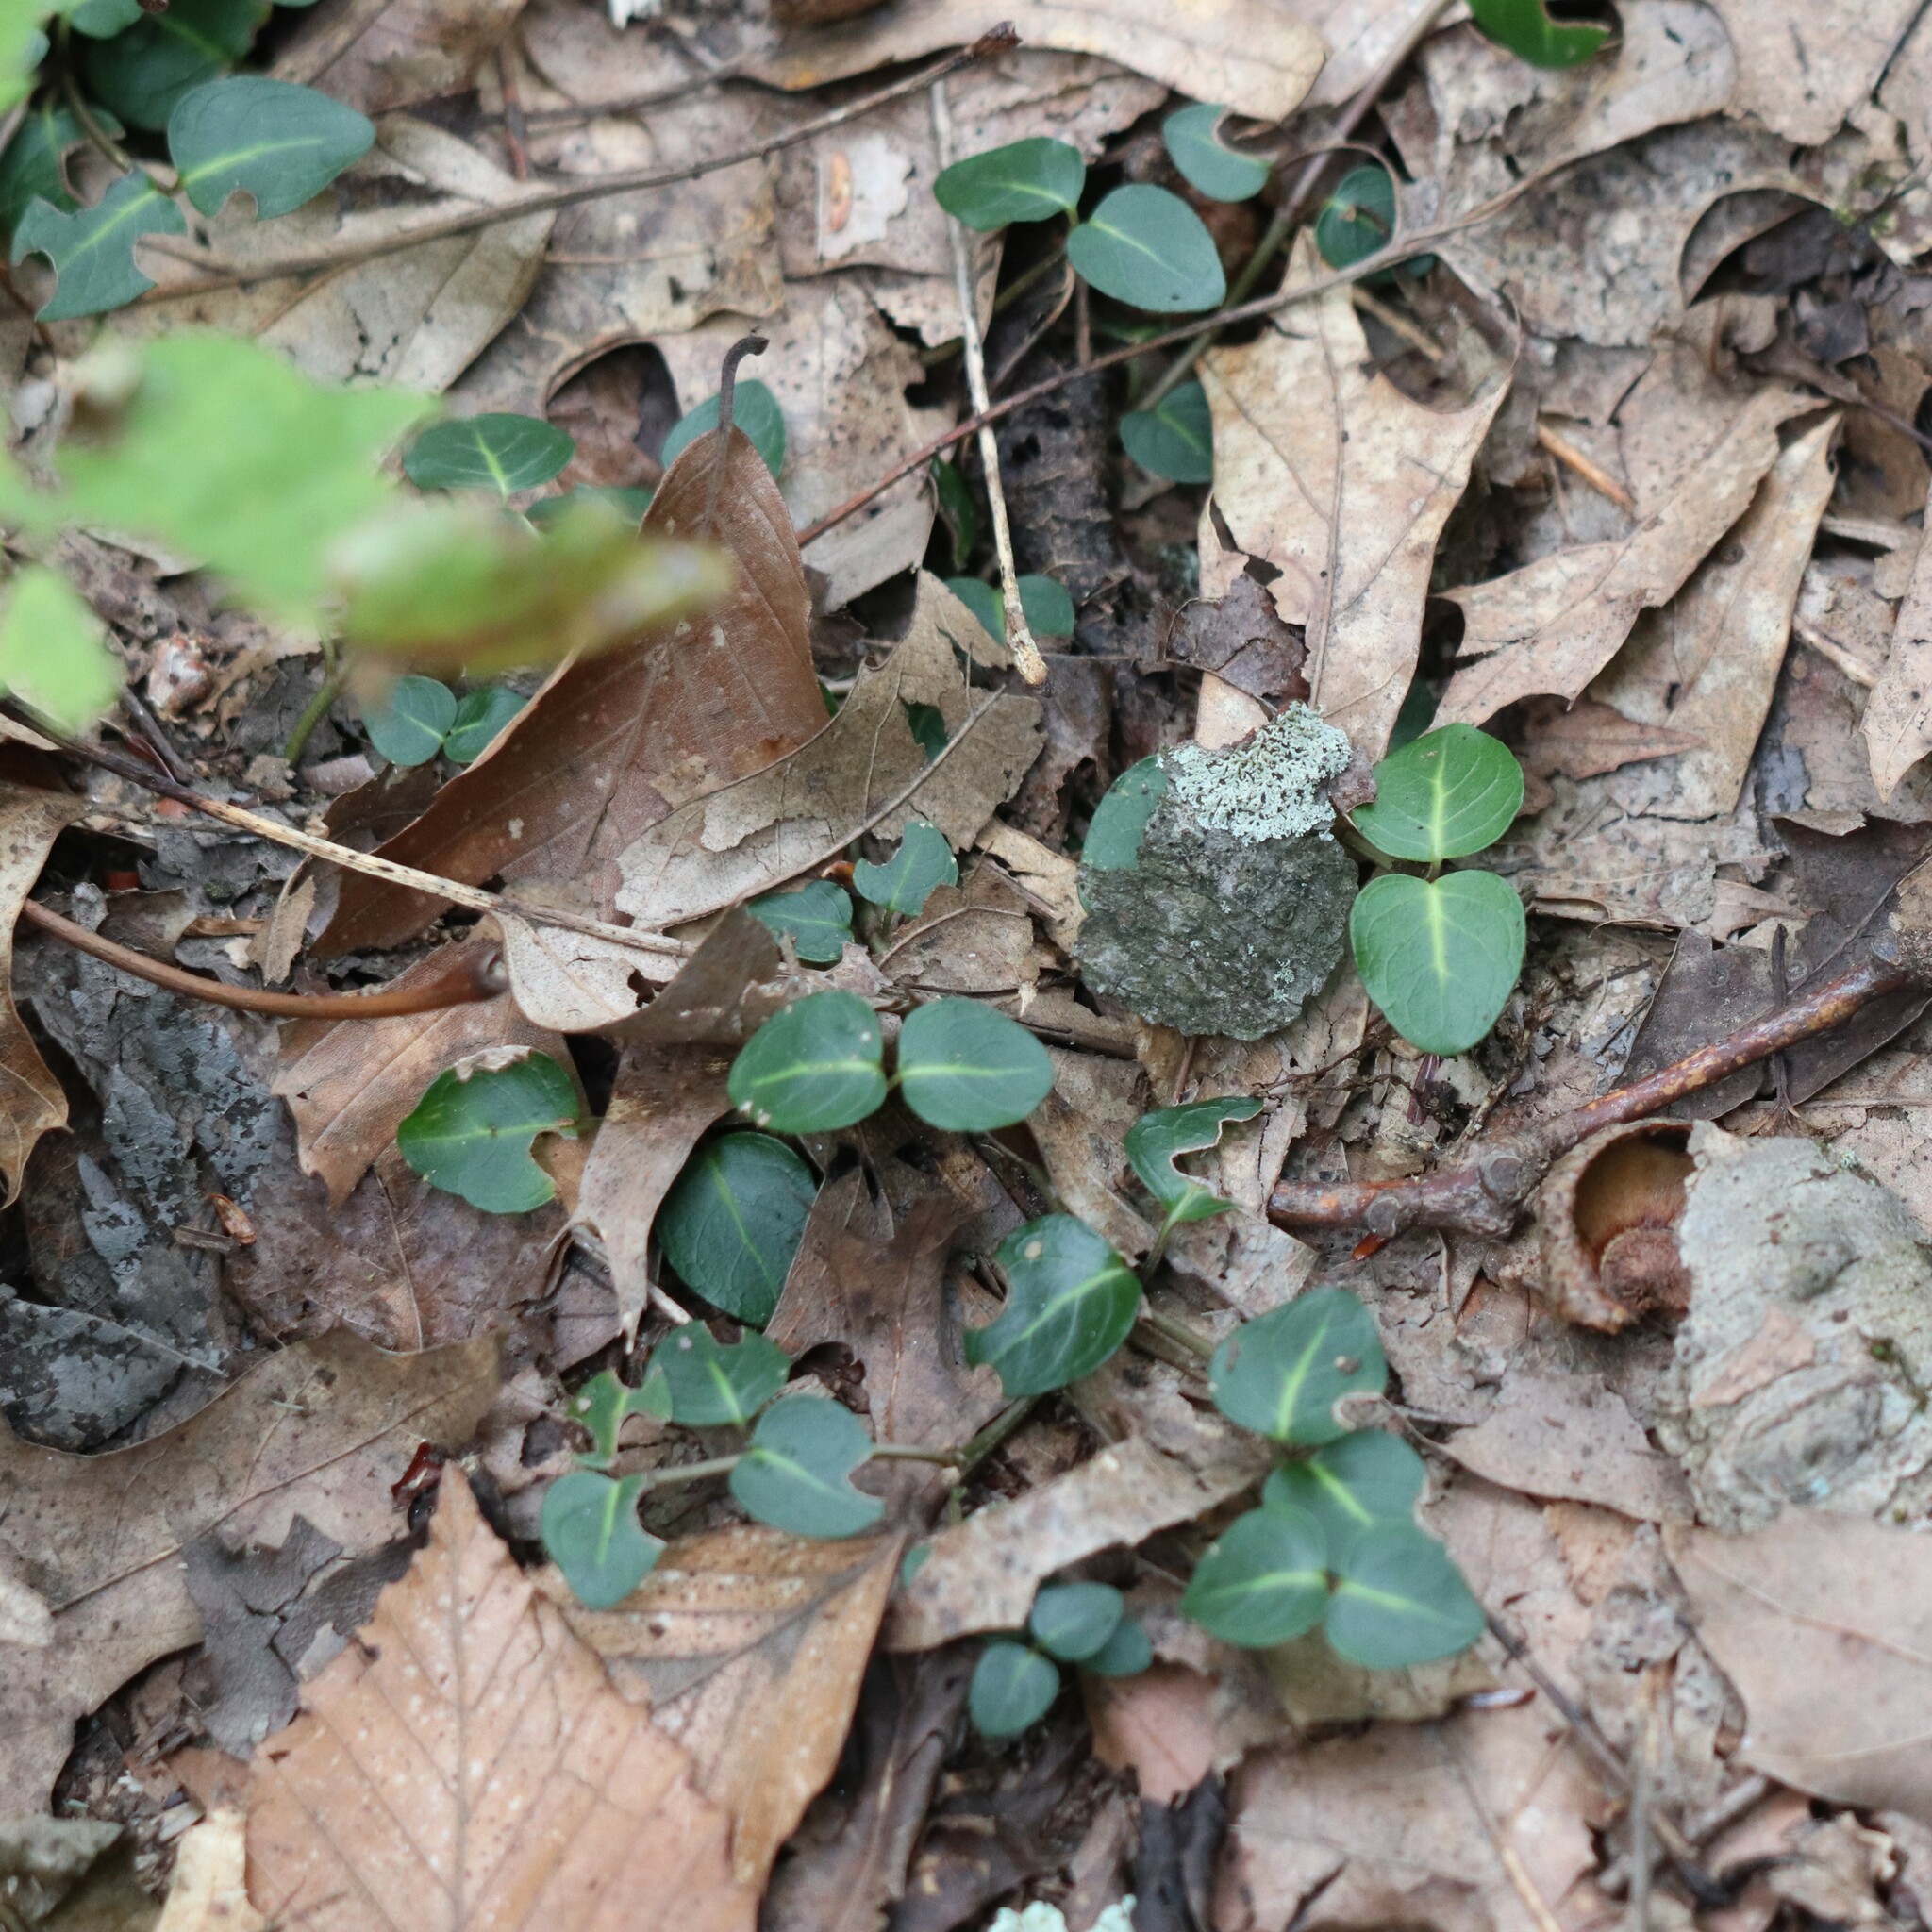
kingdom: Plantae
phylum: Tracheophyta
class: Magnoliopsida
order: Gentianales
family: Rubiaceae
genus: Mitchella
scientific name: Mitchella repens
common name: Partridge-berry
